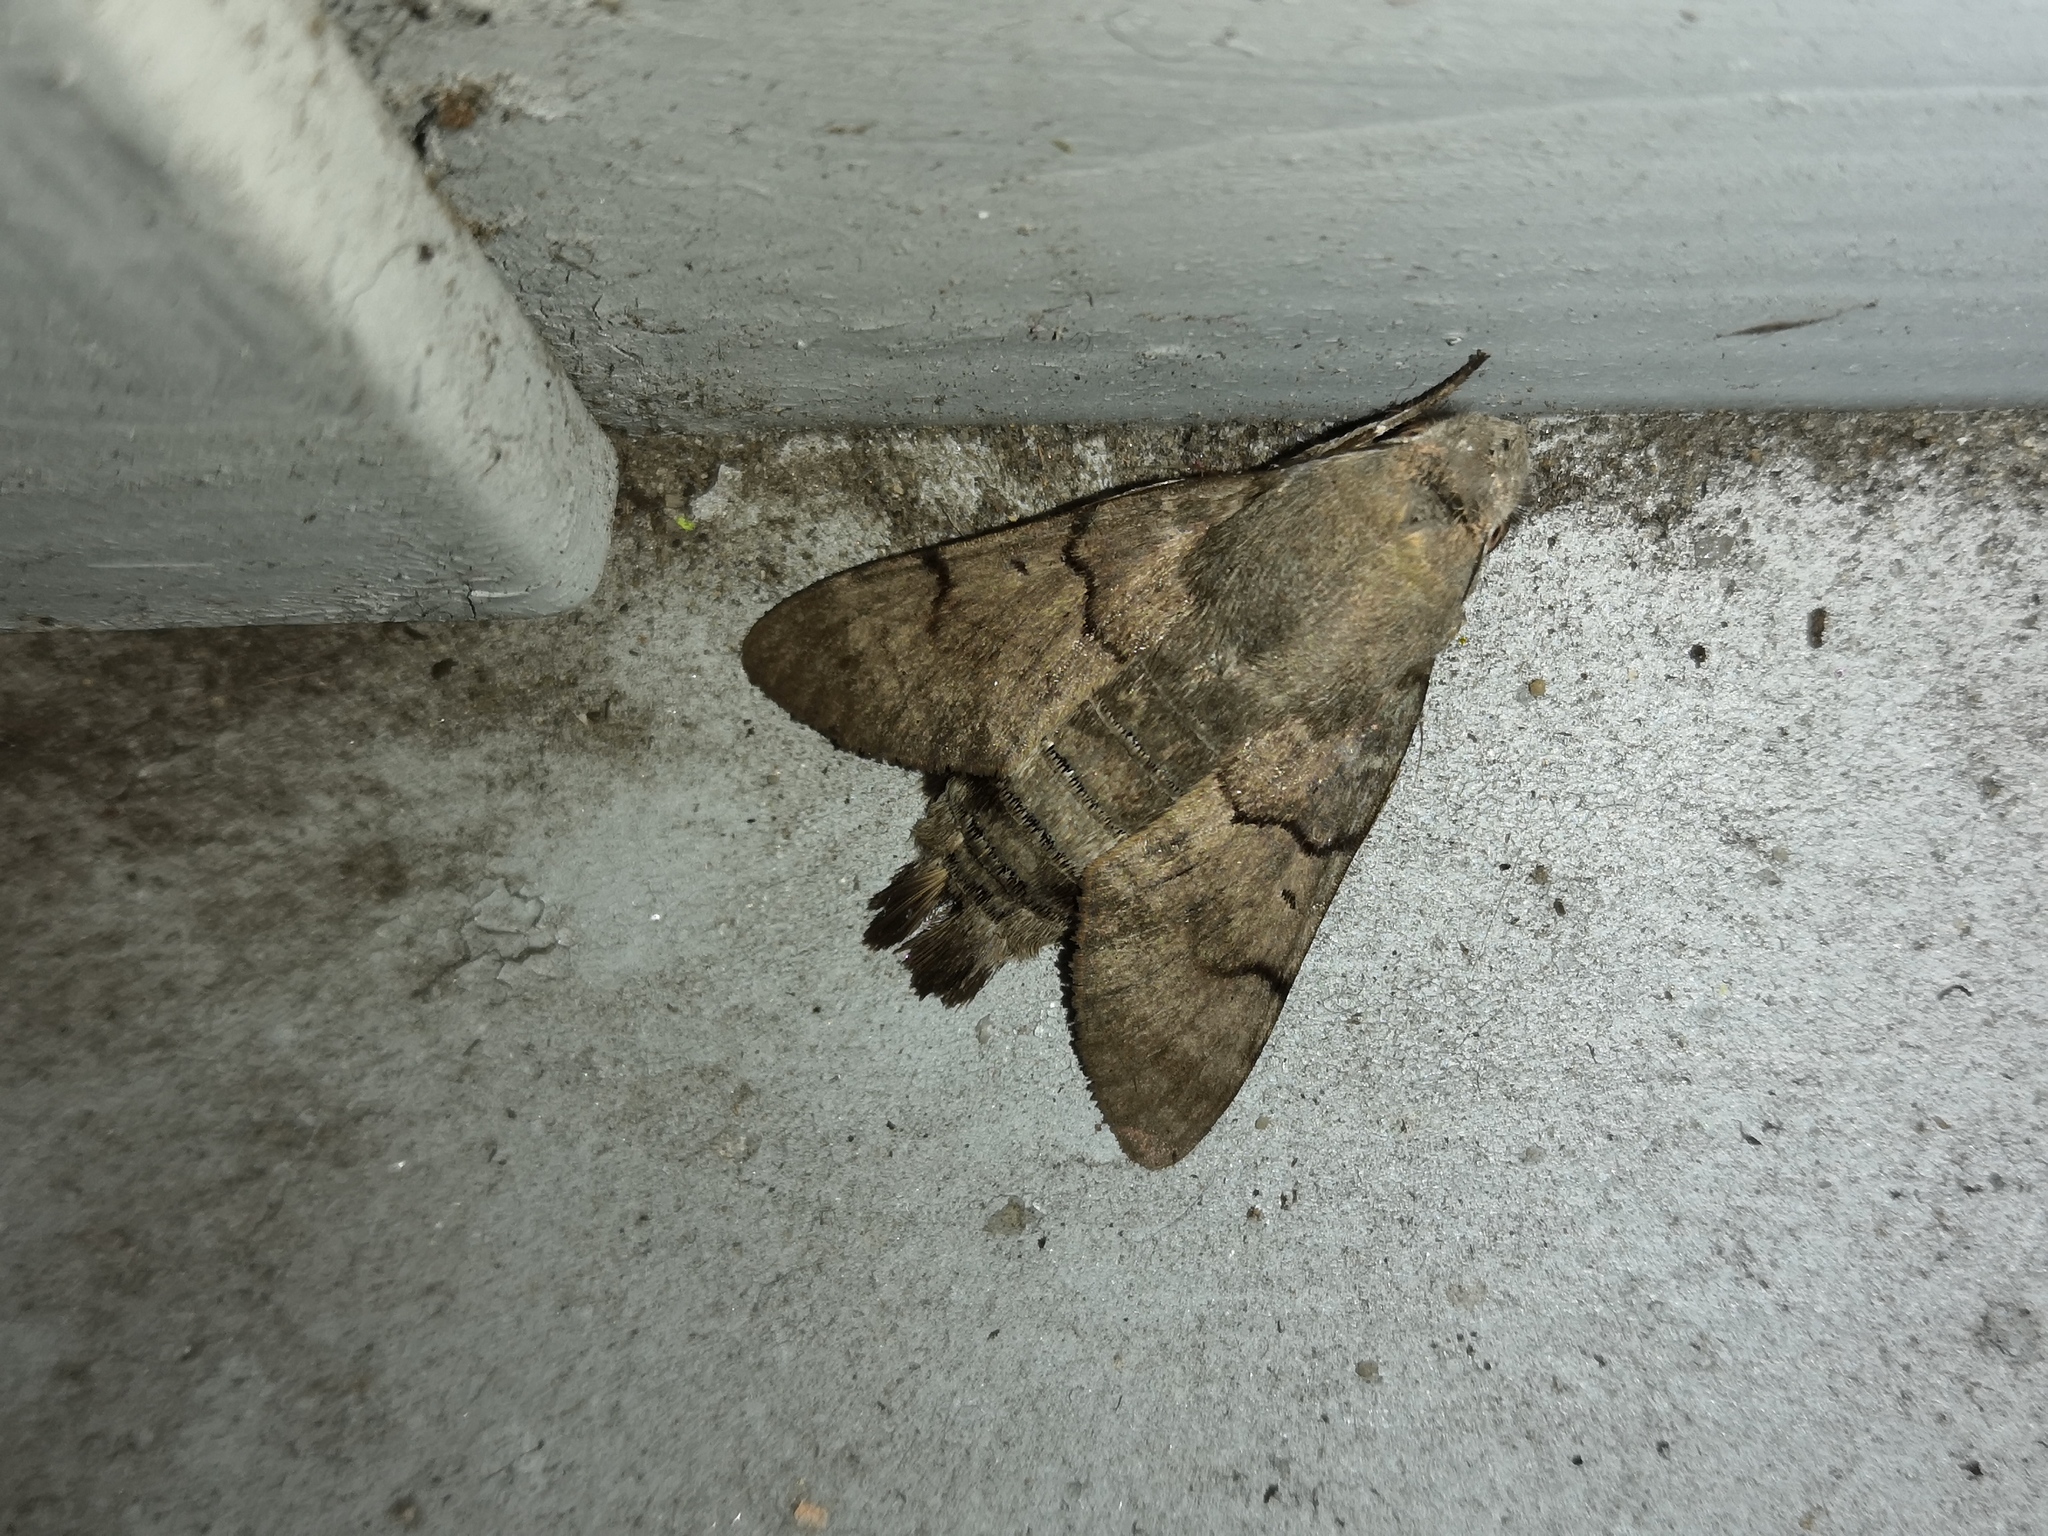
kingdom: Animalia
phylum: Arthropoda
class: Insecta
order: Lepidoptera
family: Sphingidae
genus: Macroglossum
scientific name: Macroglossum stellatarum
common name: Humming-bird hawk-moth
